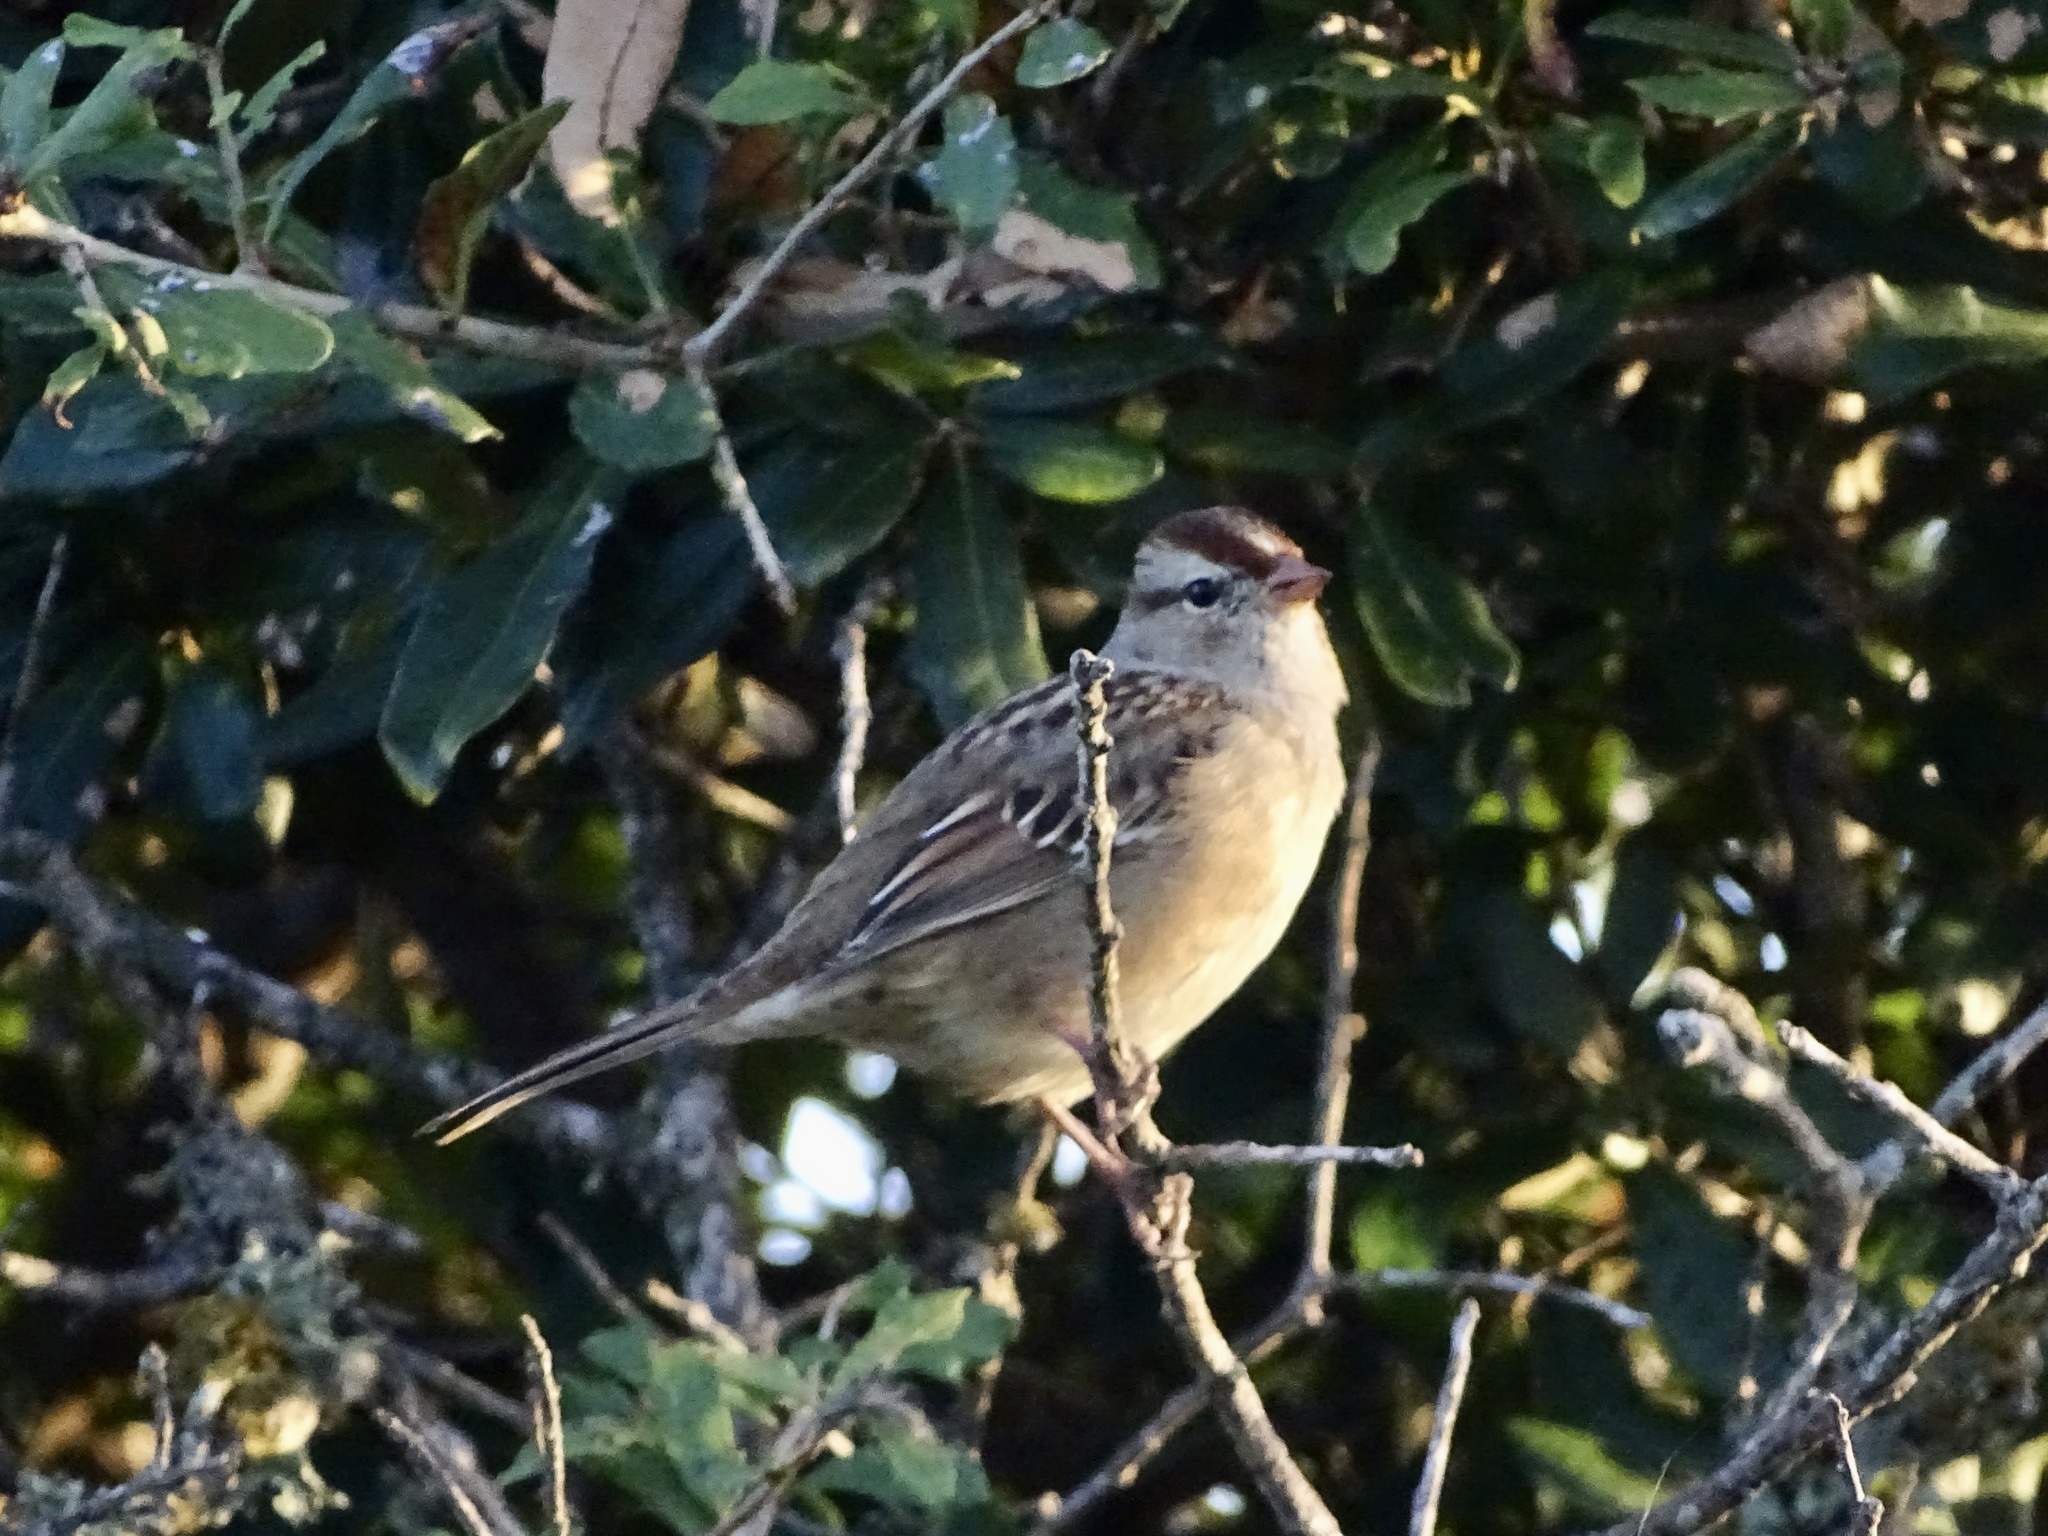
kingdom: Animalia
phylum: Chordata
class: Aves
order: Passeriformes
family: Passerellidae
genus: Zonotrichia
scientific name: Zonotrichia leucophrys
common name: White-crowned sparrow
